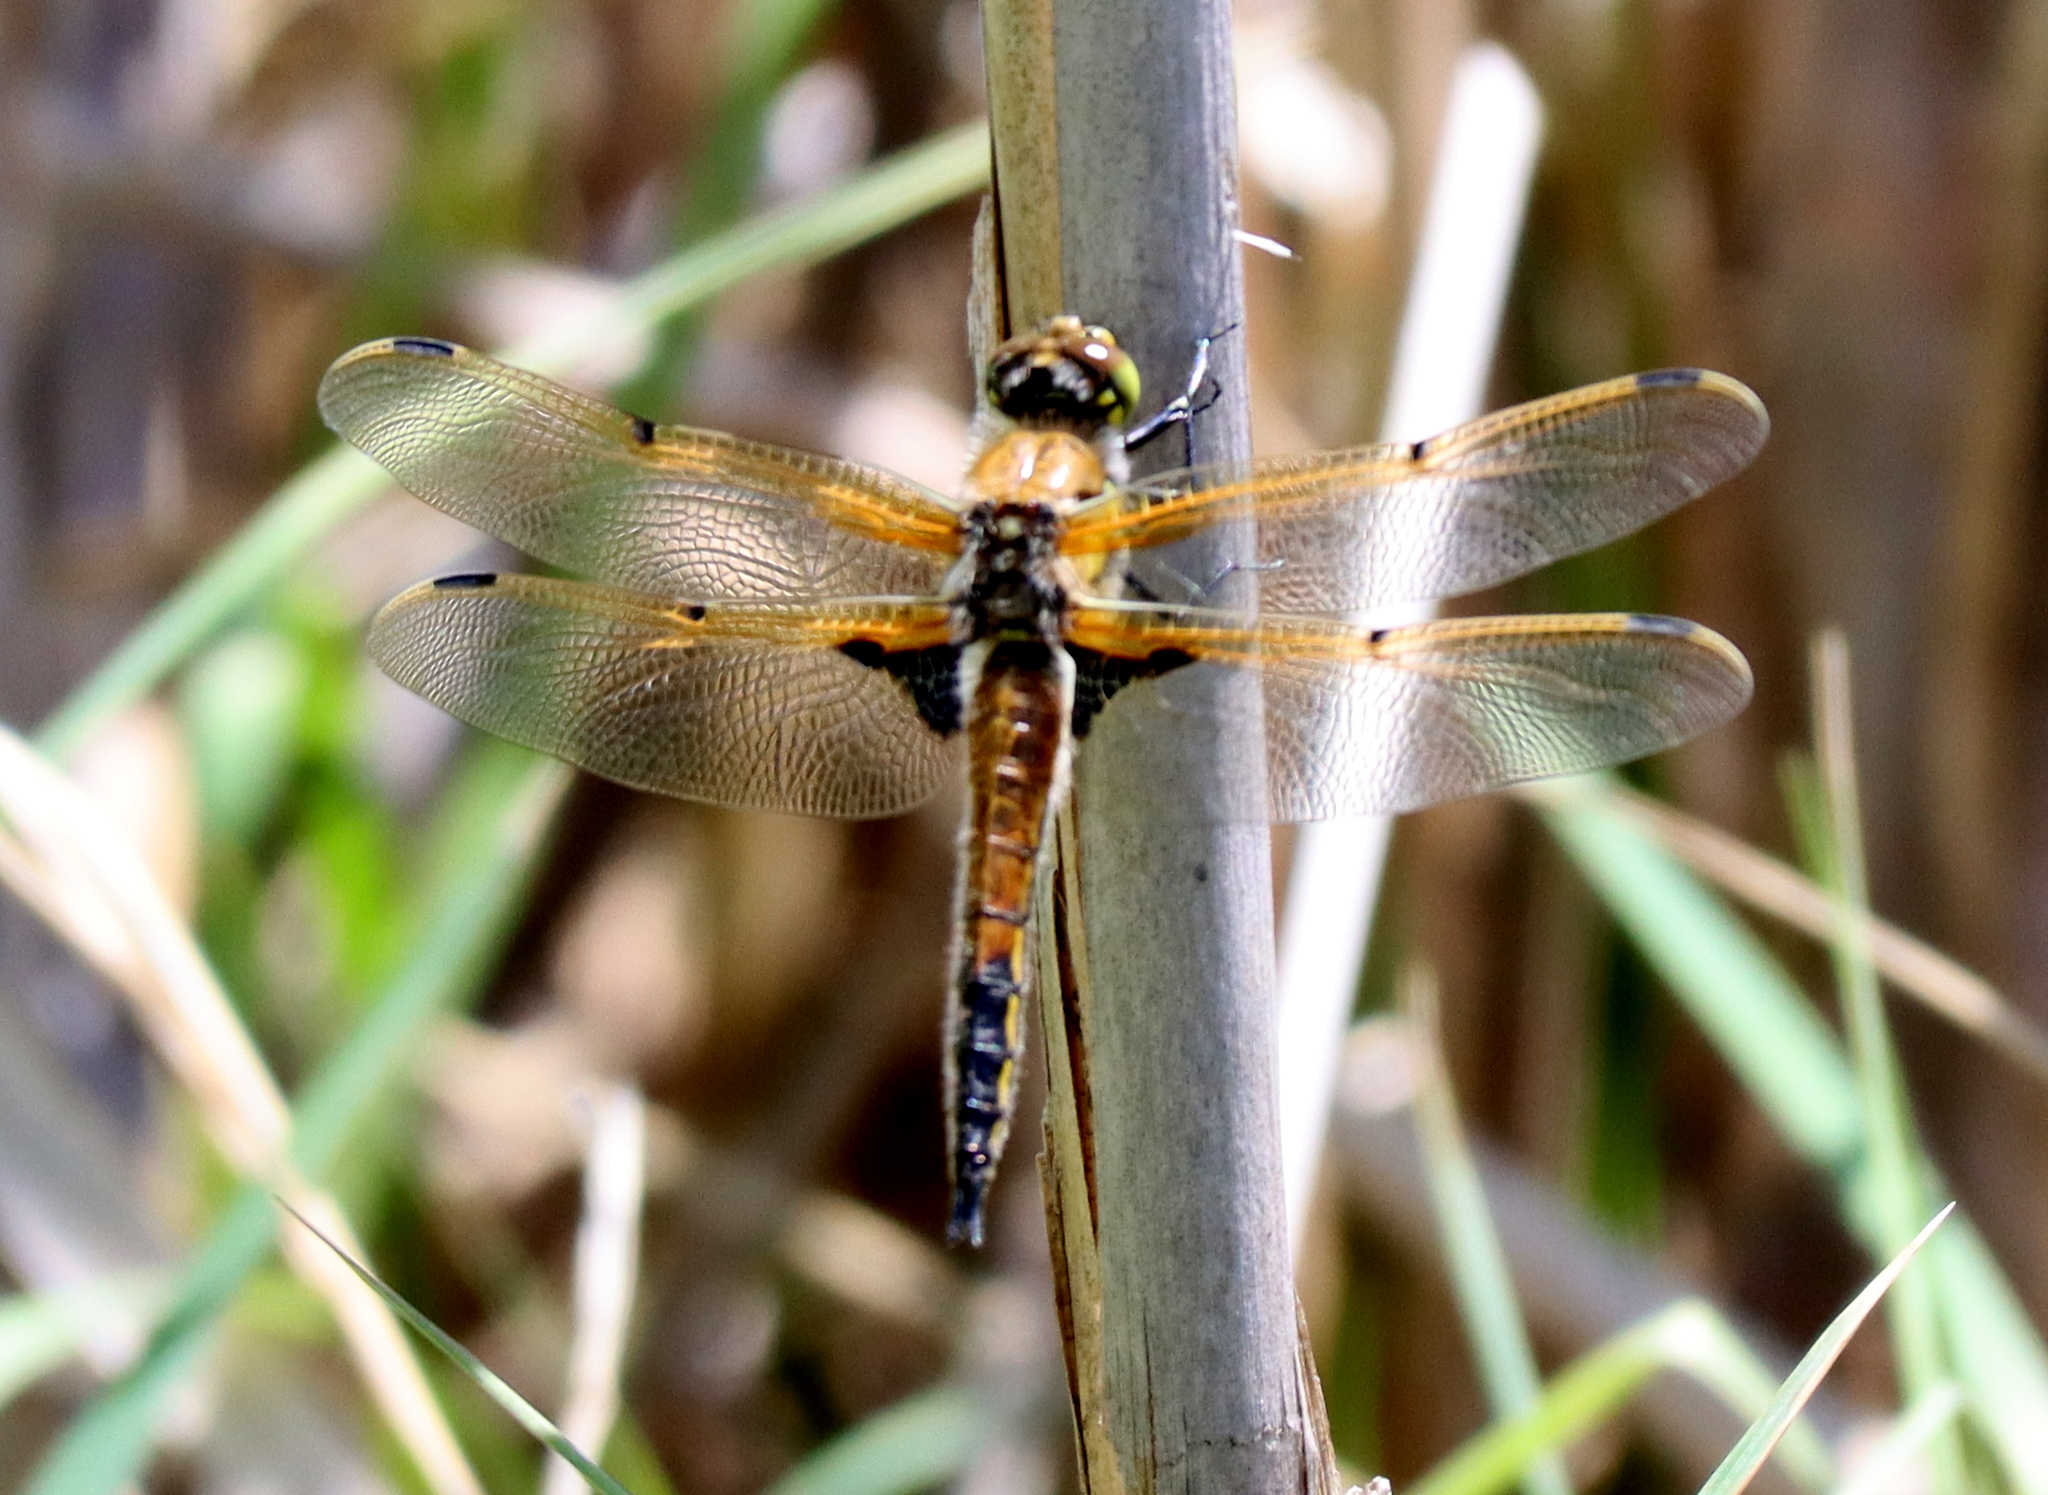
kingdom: Animalia
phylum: Arthropoda
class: Insecta
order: Odonata
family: Libellulidae
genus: Libellula
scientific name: Libellula quadrimaculata
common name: Four-spotted chaser
